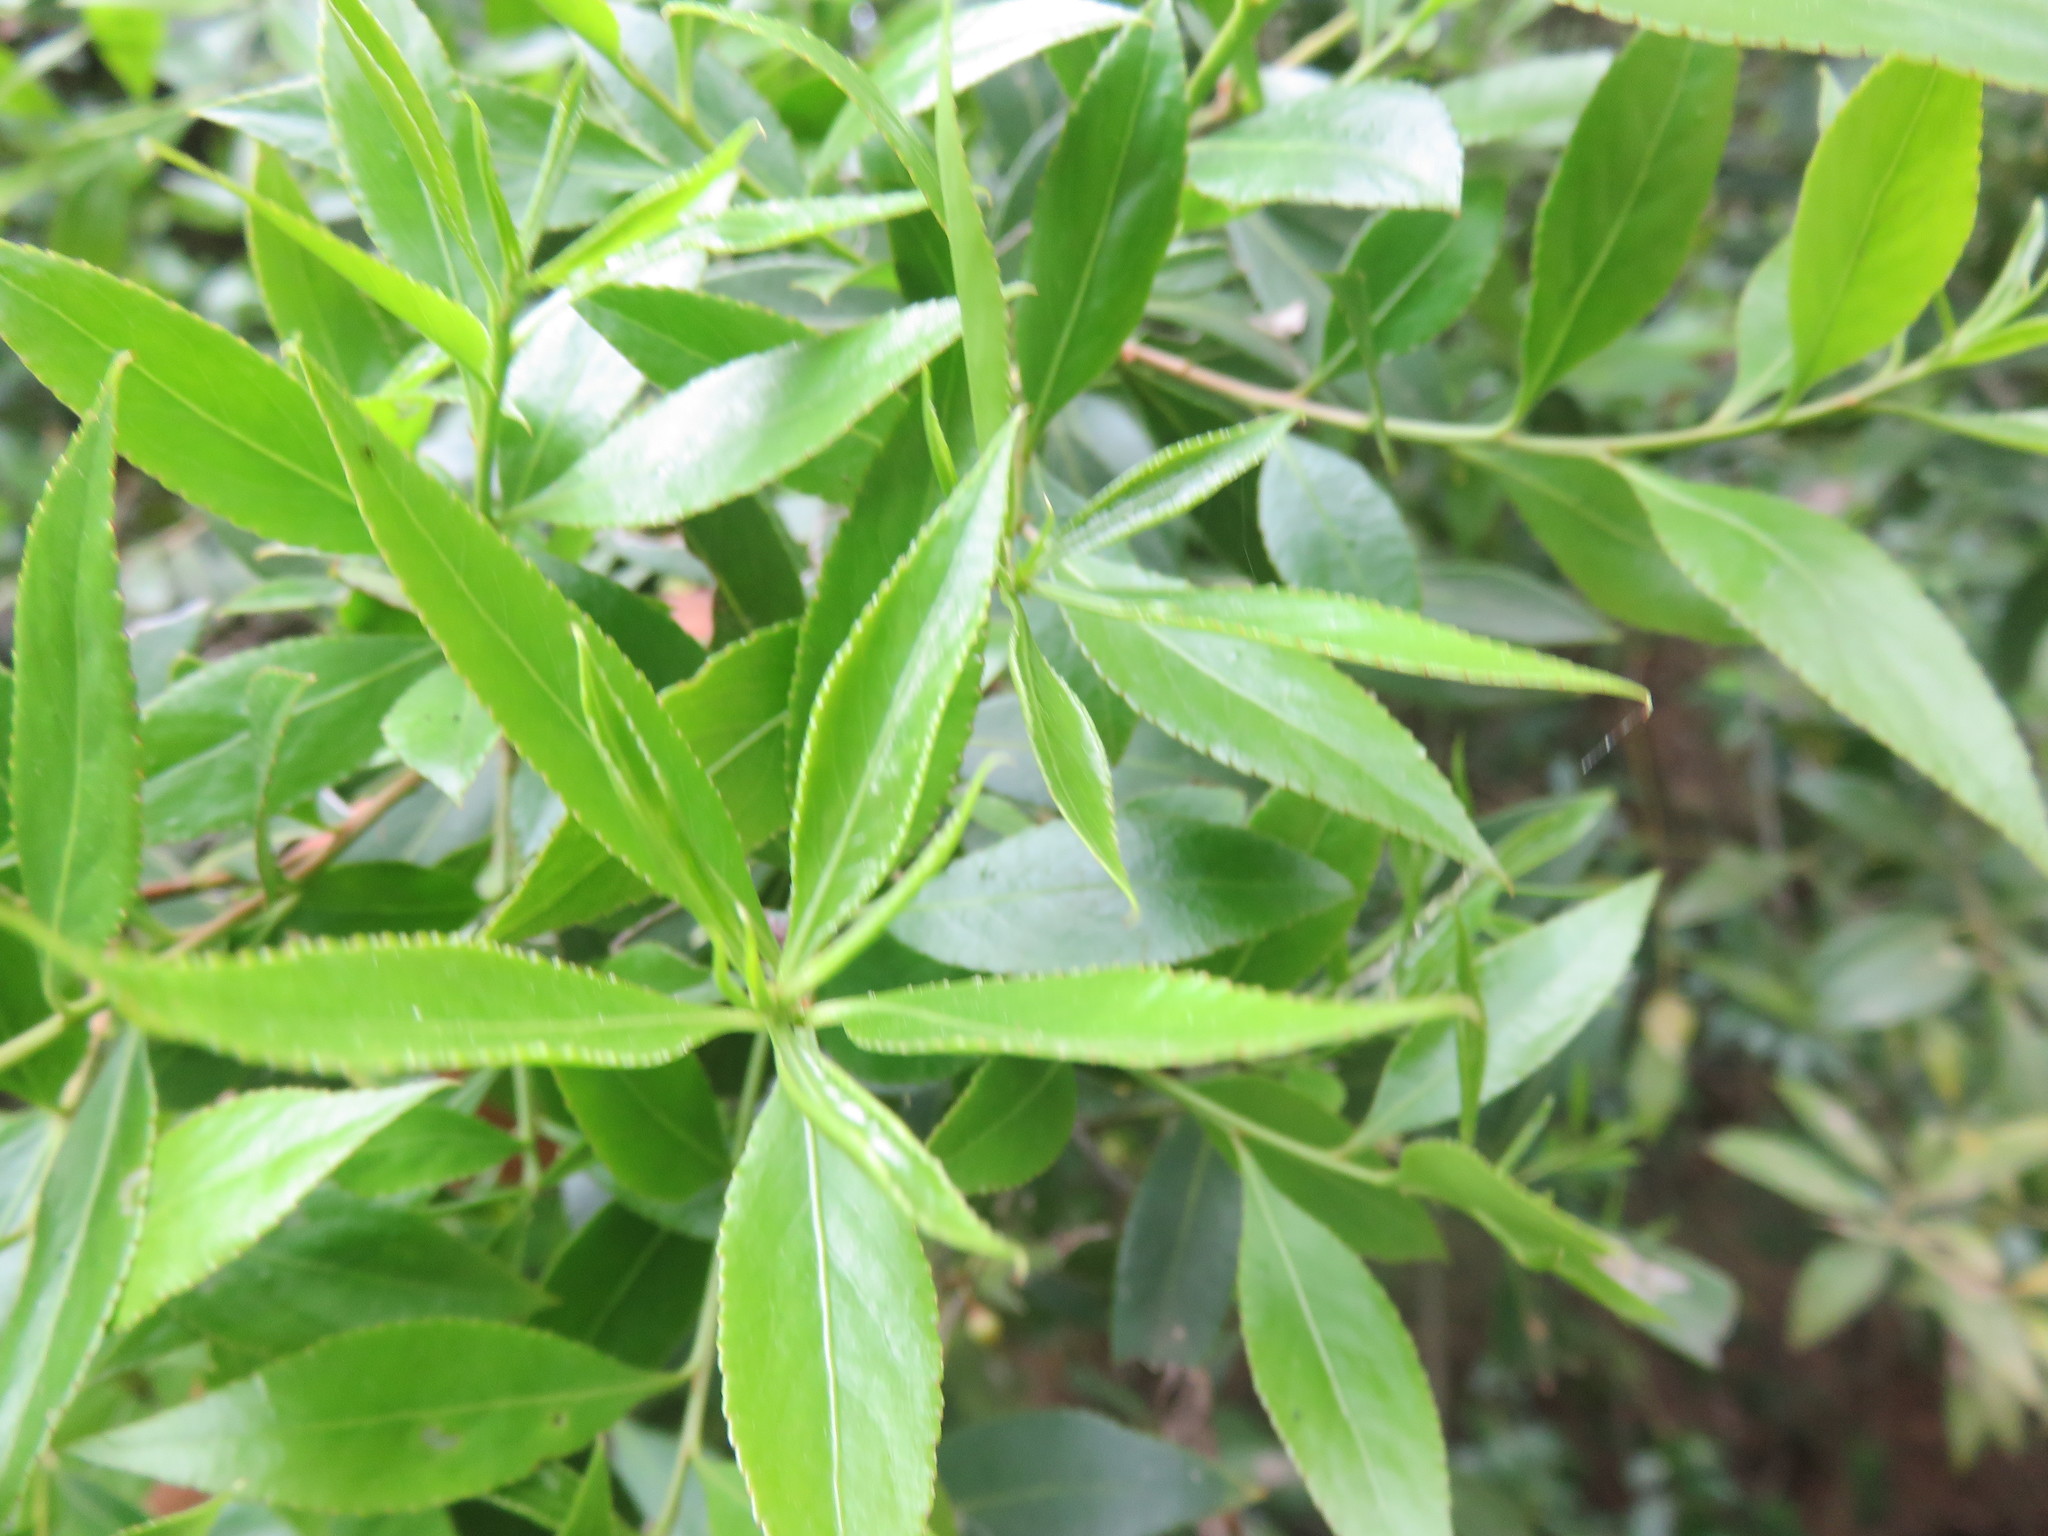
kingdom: Plantae
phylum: Tracheophyta
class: Magnoliopsida
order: Celastrales
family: Celastraceae
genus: Maytenus
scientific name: Maytenus boaria
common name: Mayten
